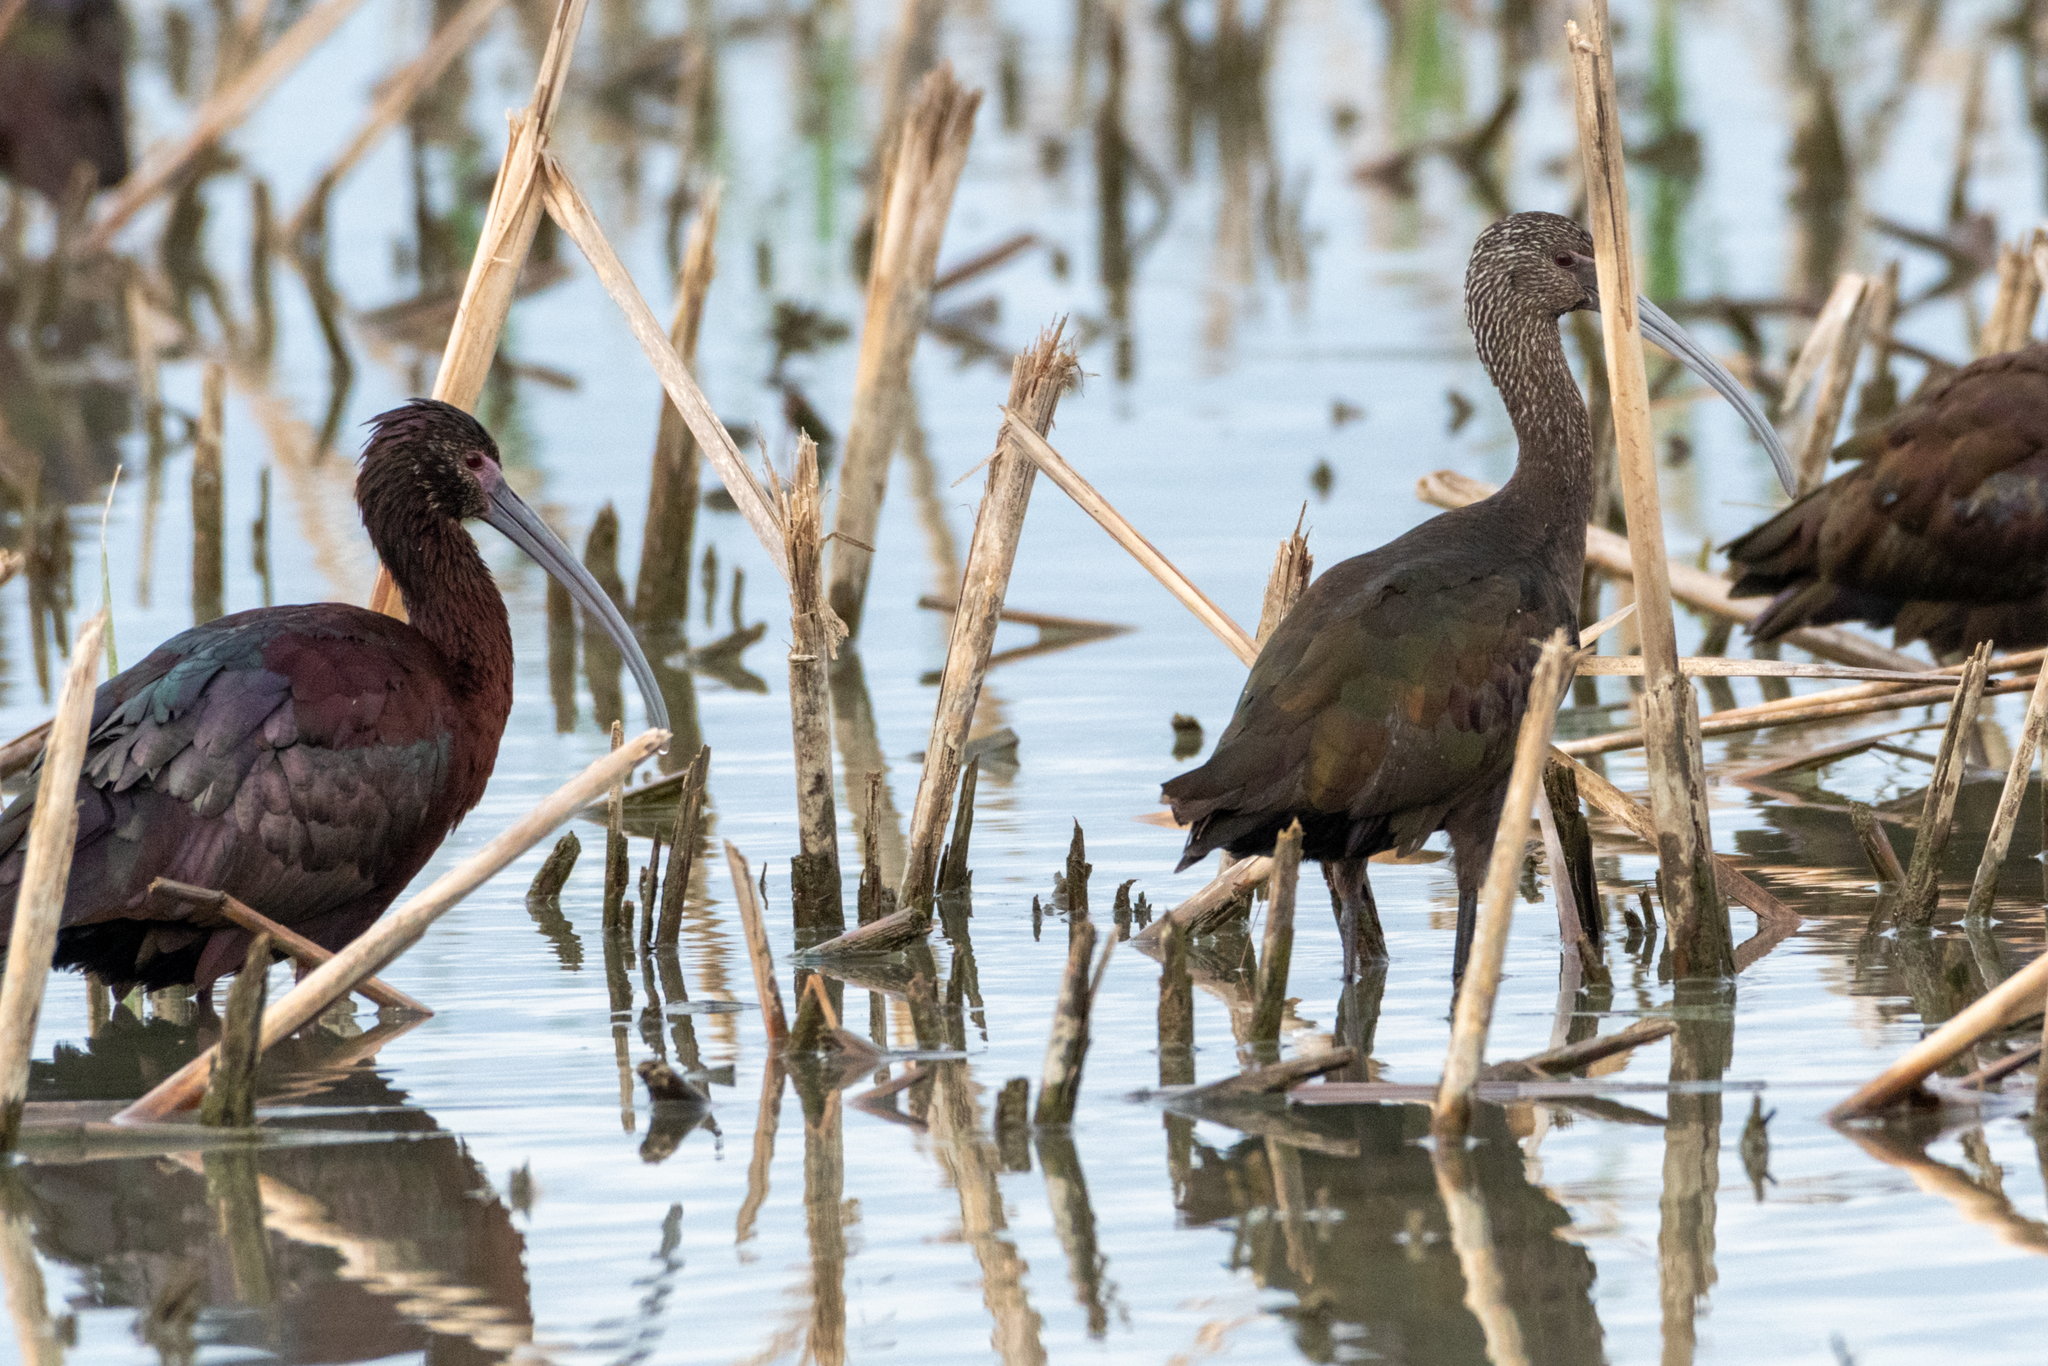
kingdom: Animalia
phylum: Chordata
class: Aves
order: Pelecaniformes
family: Threskiornithidae
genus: Plegadis
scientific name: Plegadis chihi
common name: White-faced ibis
